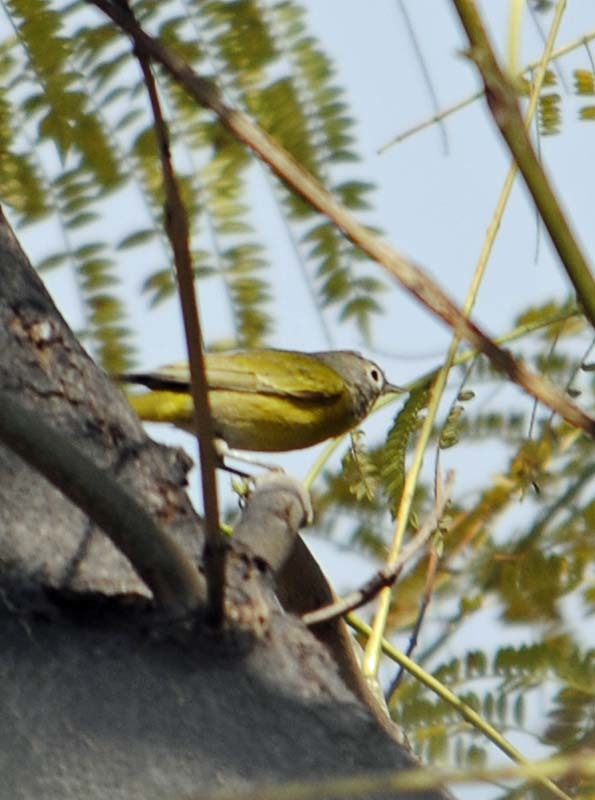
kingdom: Animalia
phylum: Chordata
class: Aves
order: Passeriformes
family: Parulidae
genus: Leiothlypis
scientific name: Leiothlypis ruficapilla
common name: Nashville warbler
